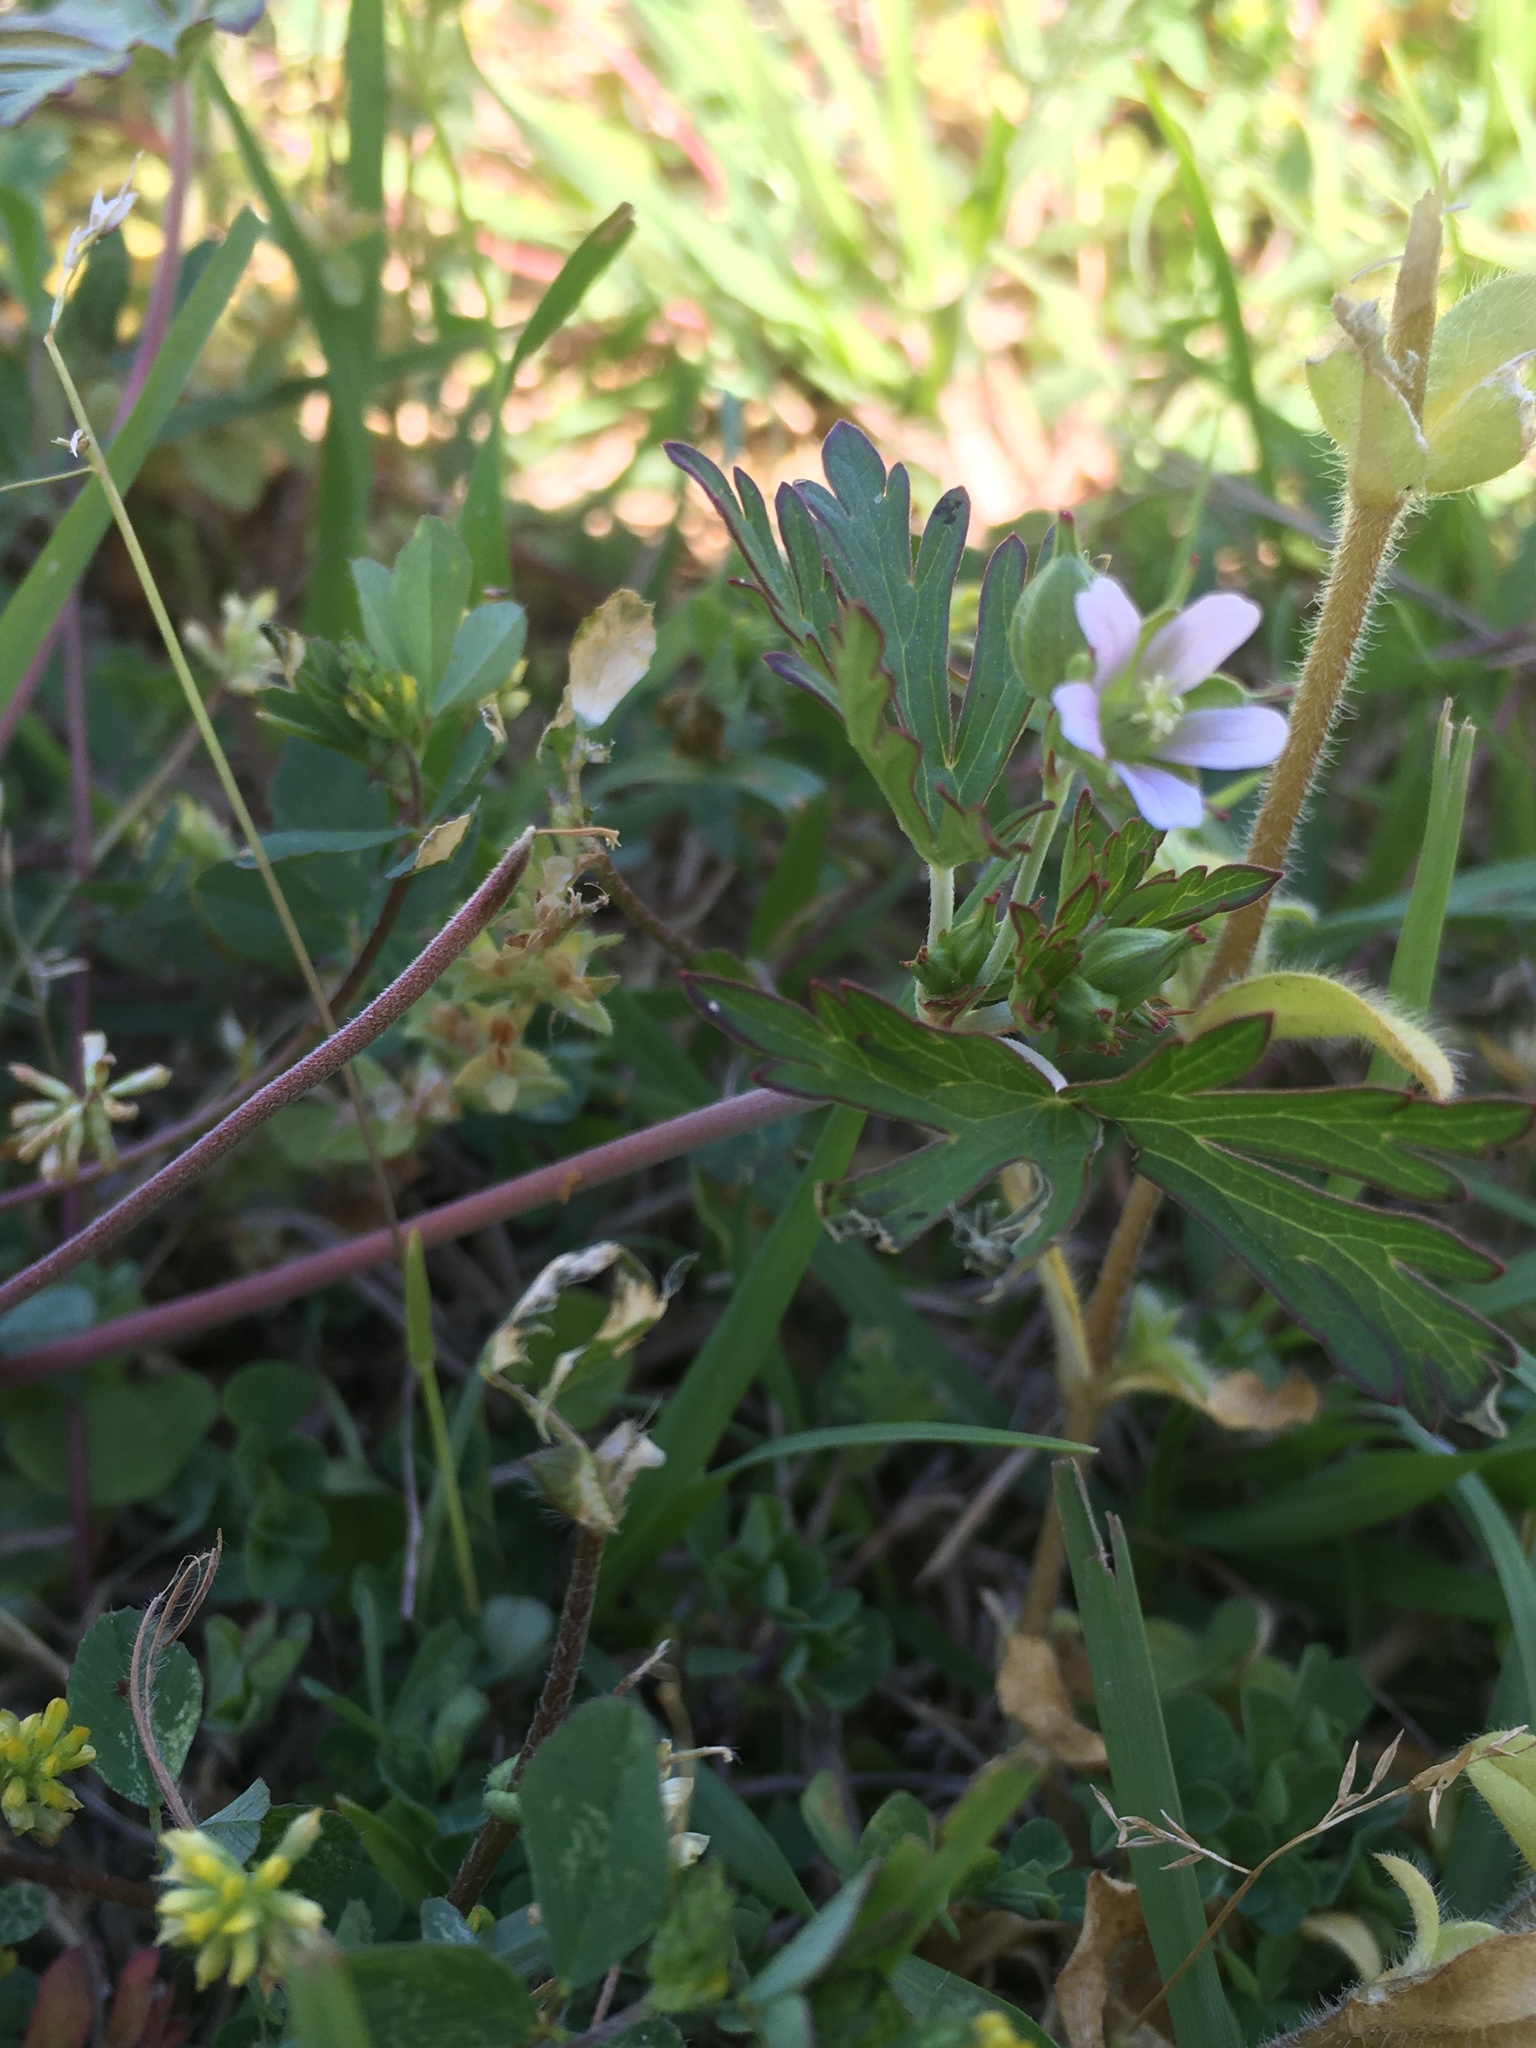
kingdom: Plantae
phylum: Tracheophyta
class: Magnoliopsida
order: Geraniales
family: Geraniaceae
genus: Geranium
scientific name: Geranium carolinianum
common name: Carolina crane's-bill
